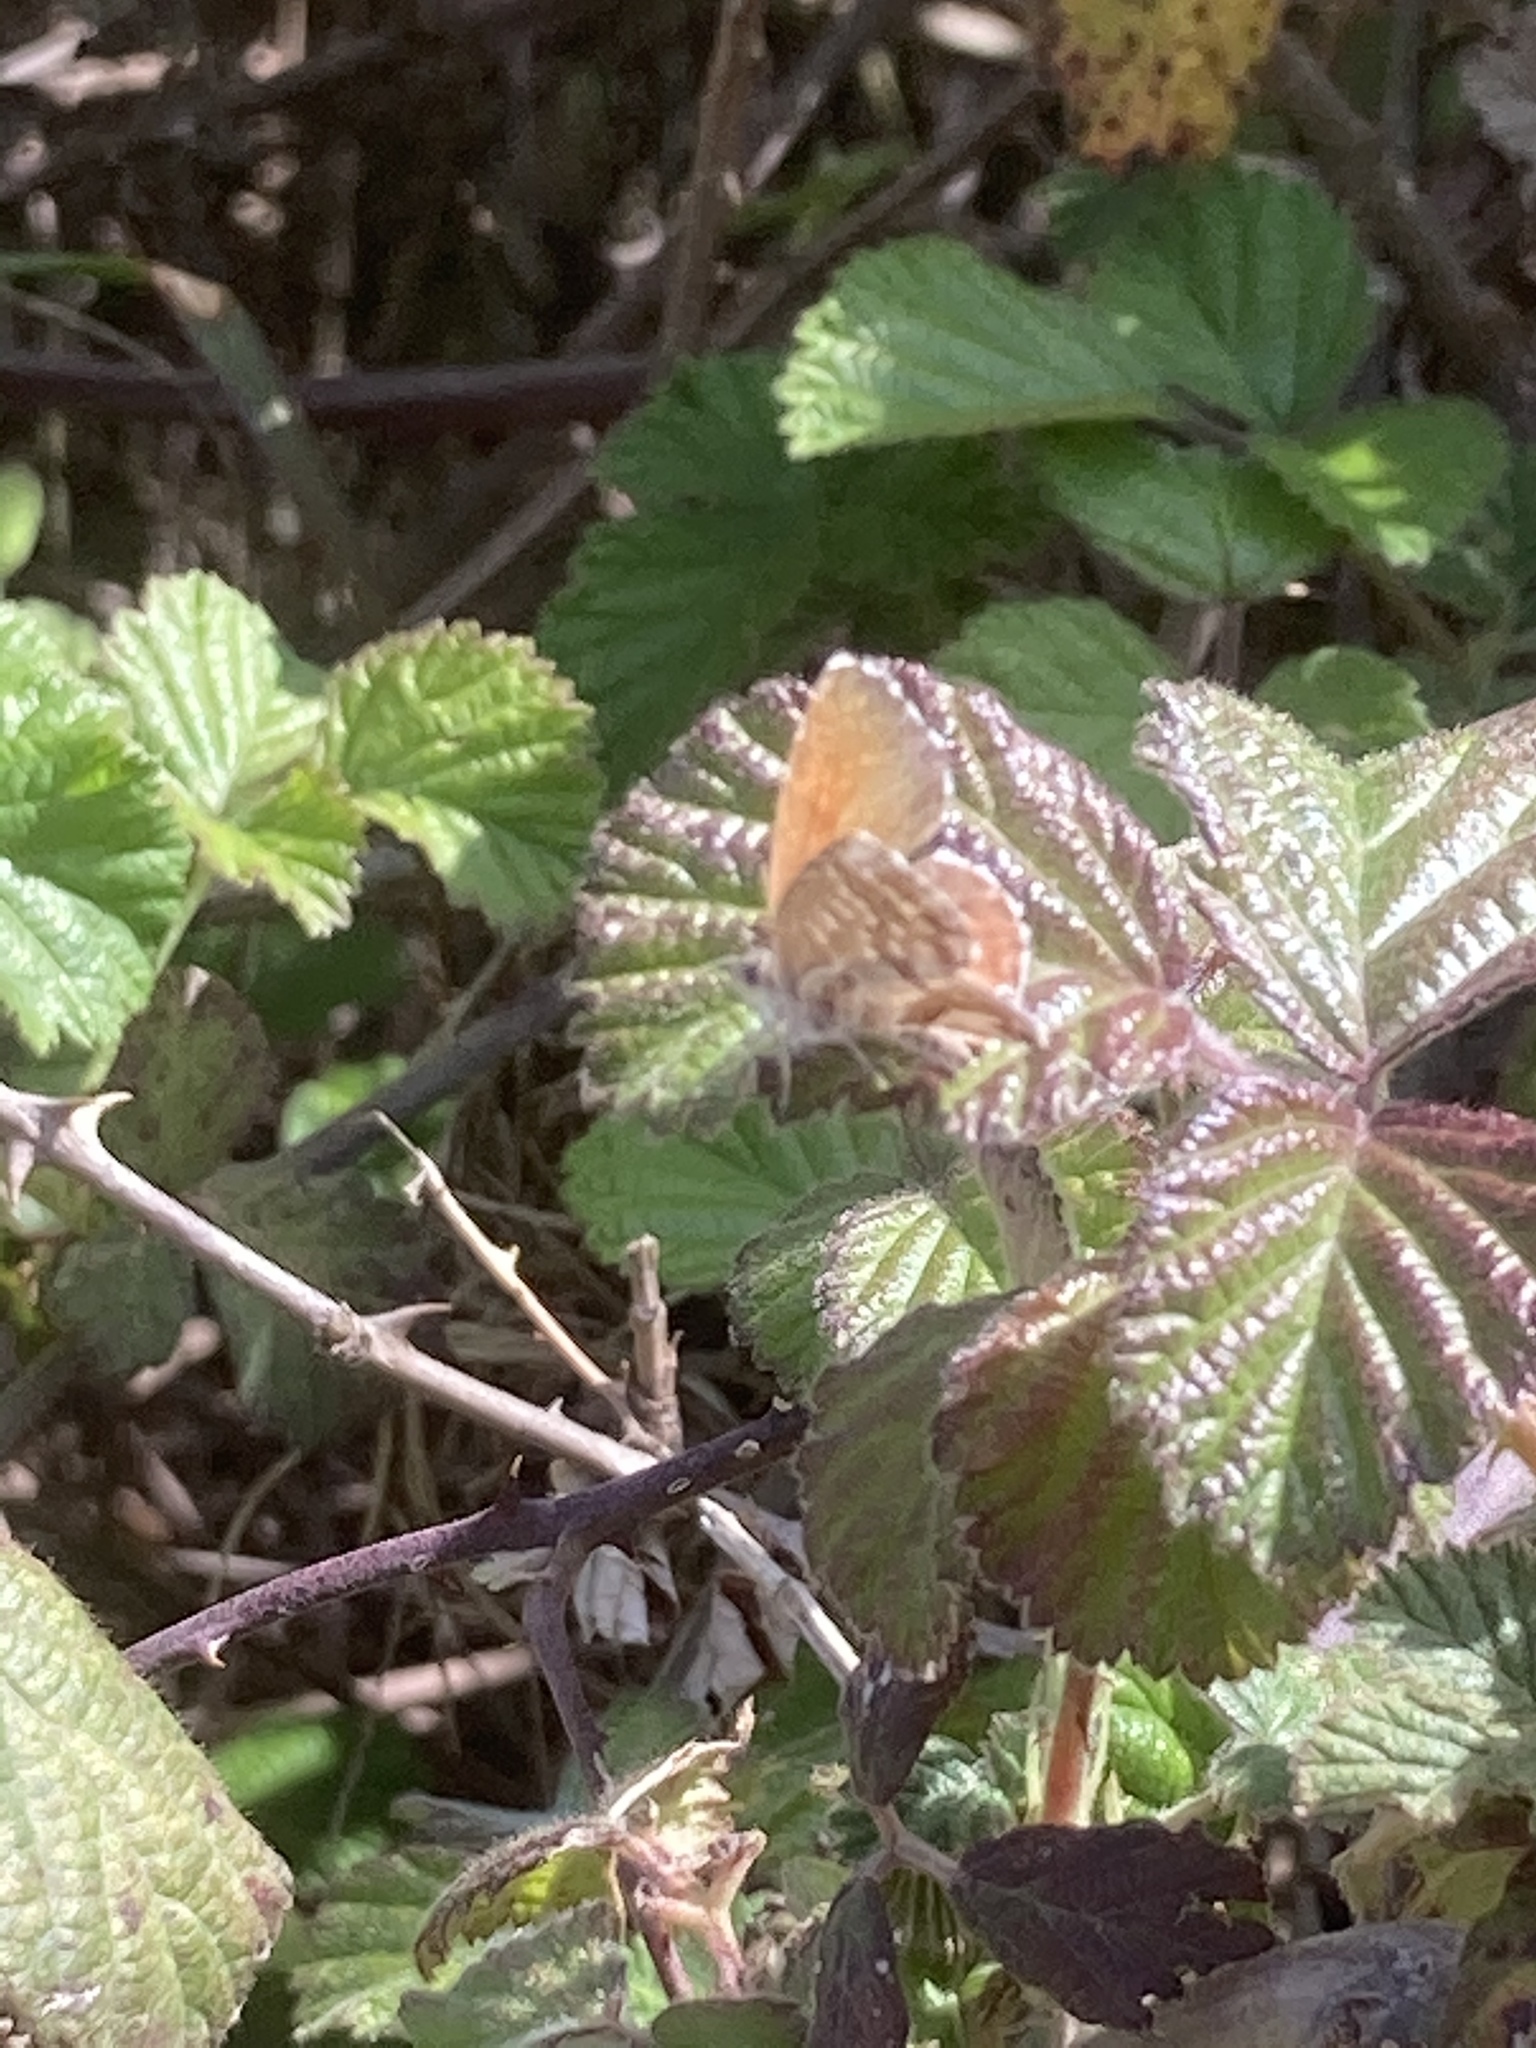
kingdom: Animalia
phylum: Arthropoda
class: Insecta
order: Lepidoptera
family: Lycaenidae
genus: Cacyreus
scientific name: Cacyreus marshalli
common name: Geranium bronze
